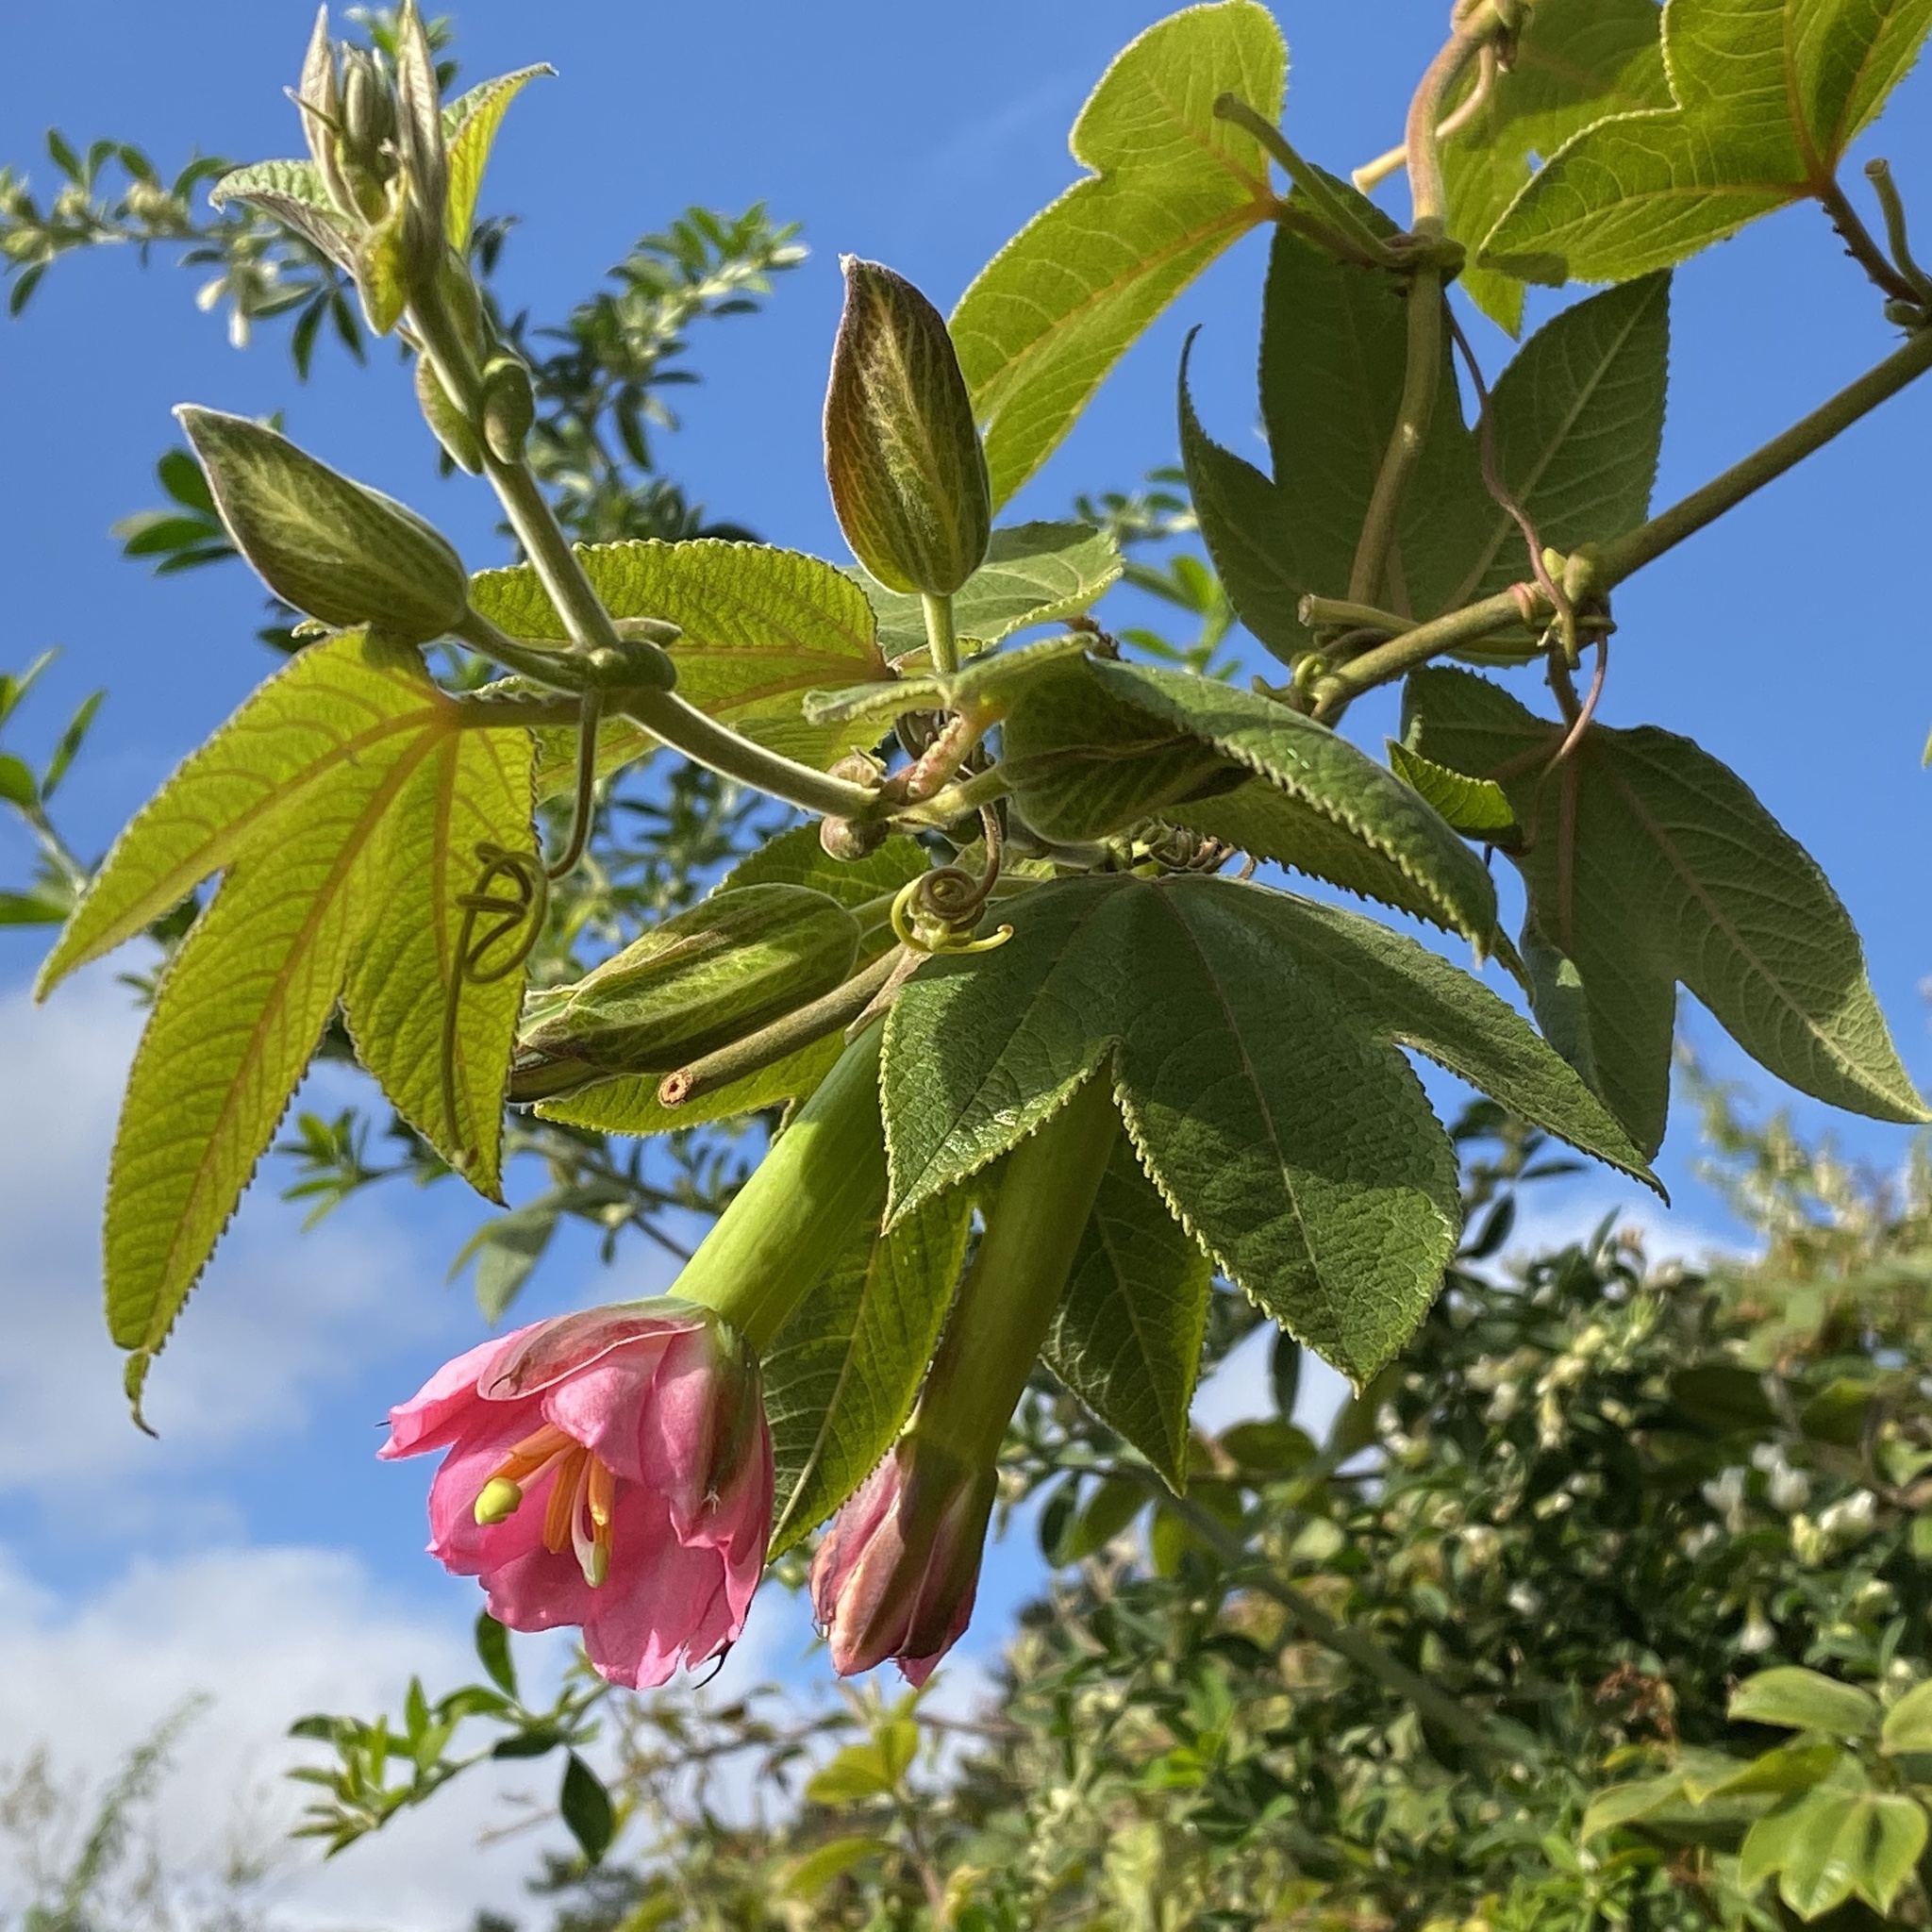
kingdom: Plantae
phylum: Tracheophyta
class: Magnoliopsida
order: Malpighiales
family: Passifloraceae
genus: Passiflora
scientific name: Passiflora tripartita
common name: Banana poka
